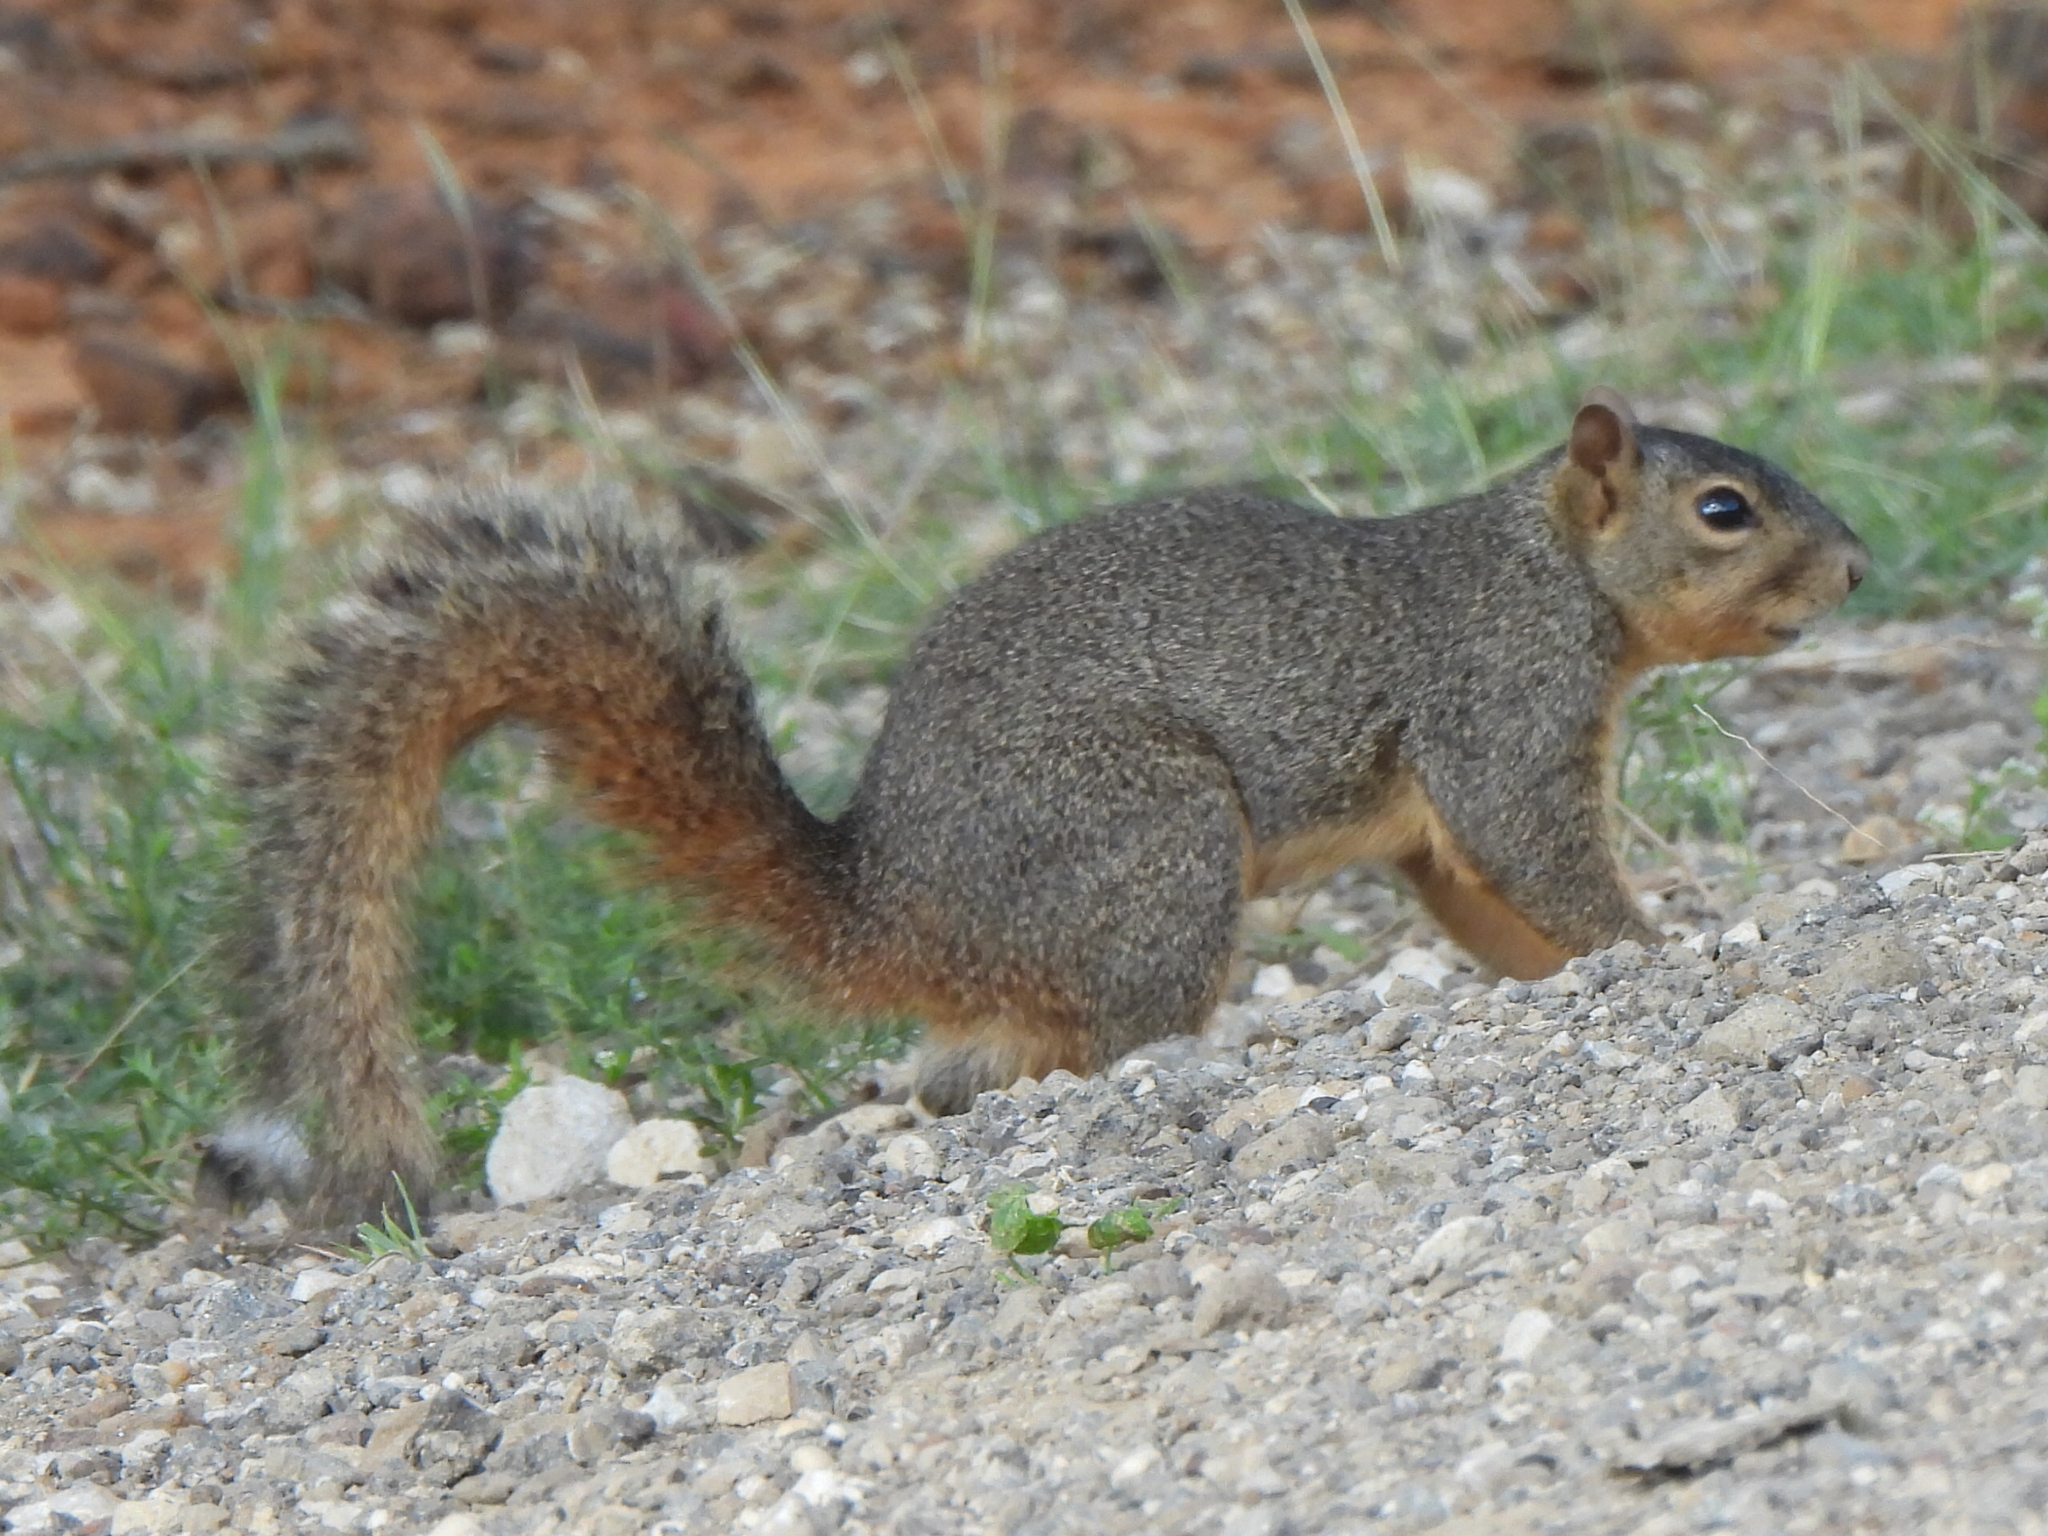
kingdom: Animalia
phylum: Chordata
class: Mammalia
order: Rodentia
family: Sciuridae
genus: Sciurus
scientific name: Sciurus niger
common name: Fox squirrel
